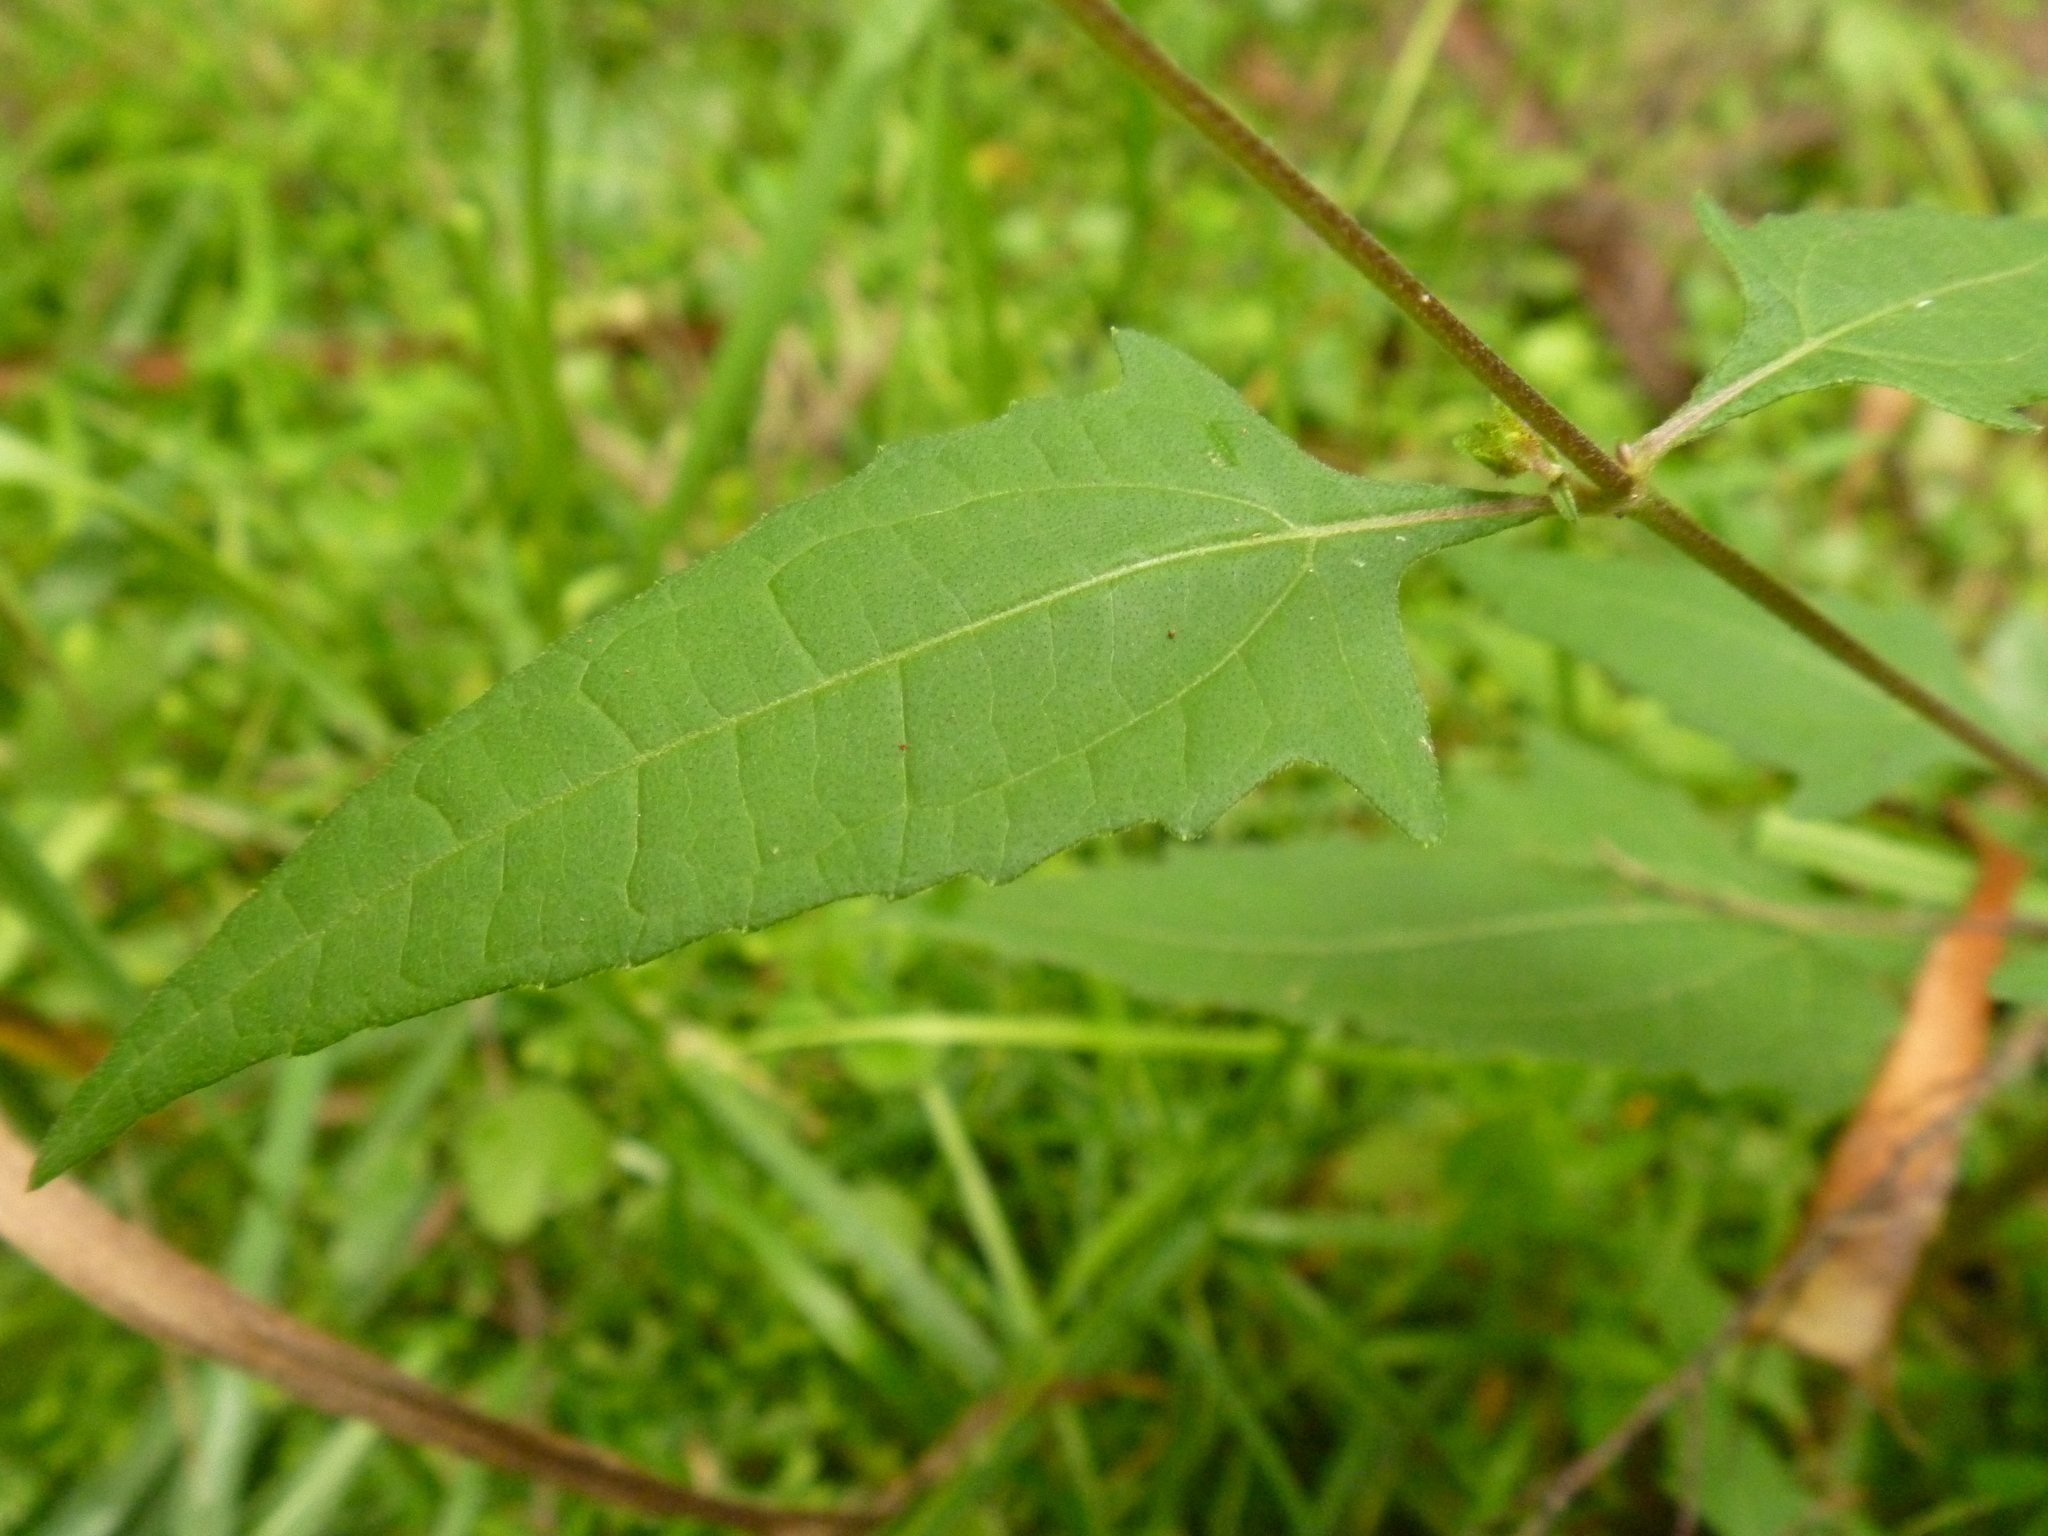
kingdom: Plantae
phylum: Tracheophyta
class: Magnoliopsida
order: Asterales
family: Asteraceae
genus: Sigesbeckia
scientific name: Sigesbeckia orientalis
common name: Eastern st paul's-wort
